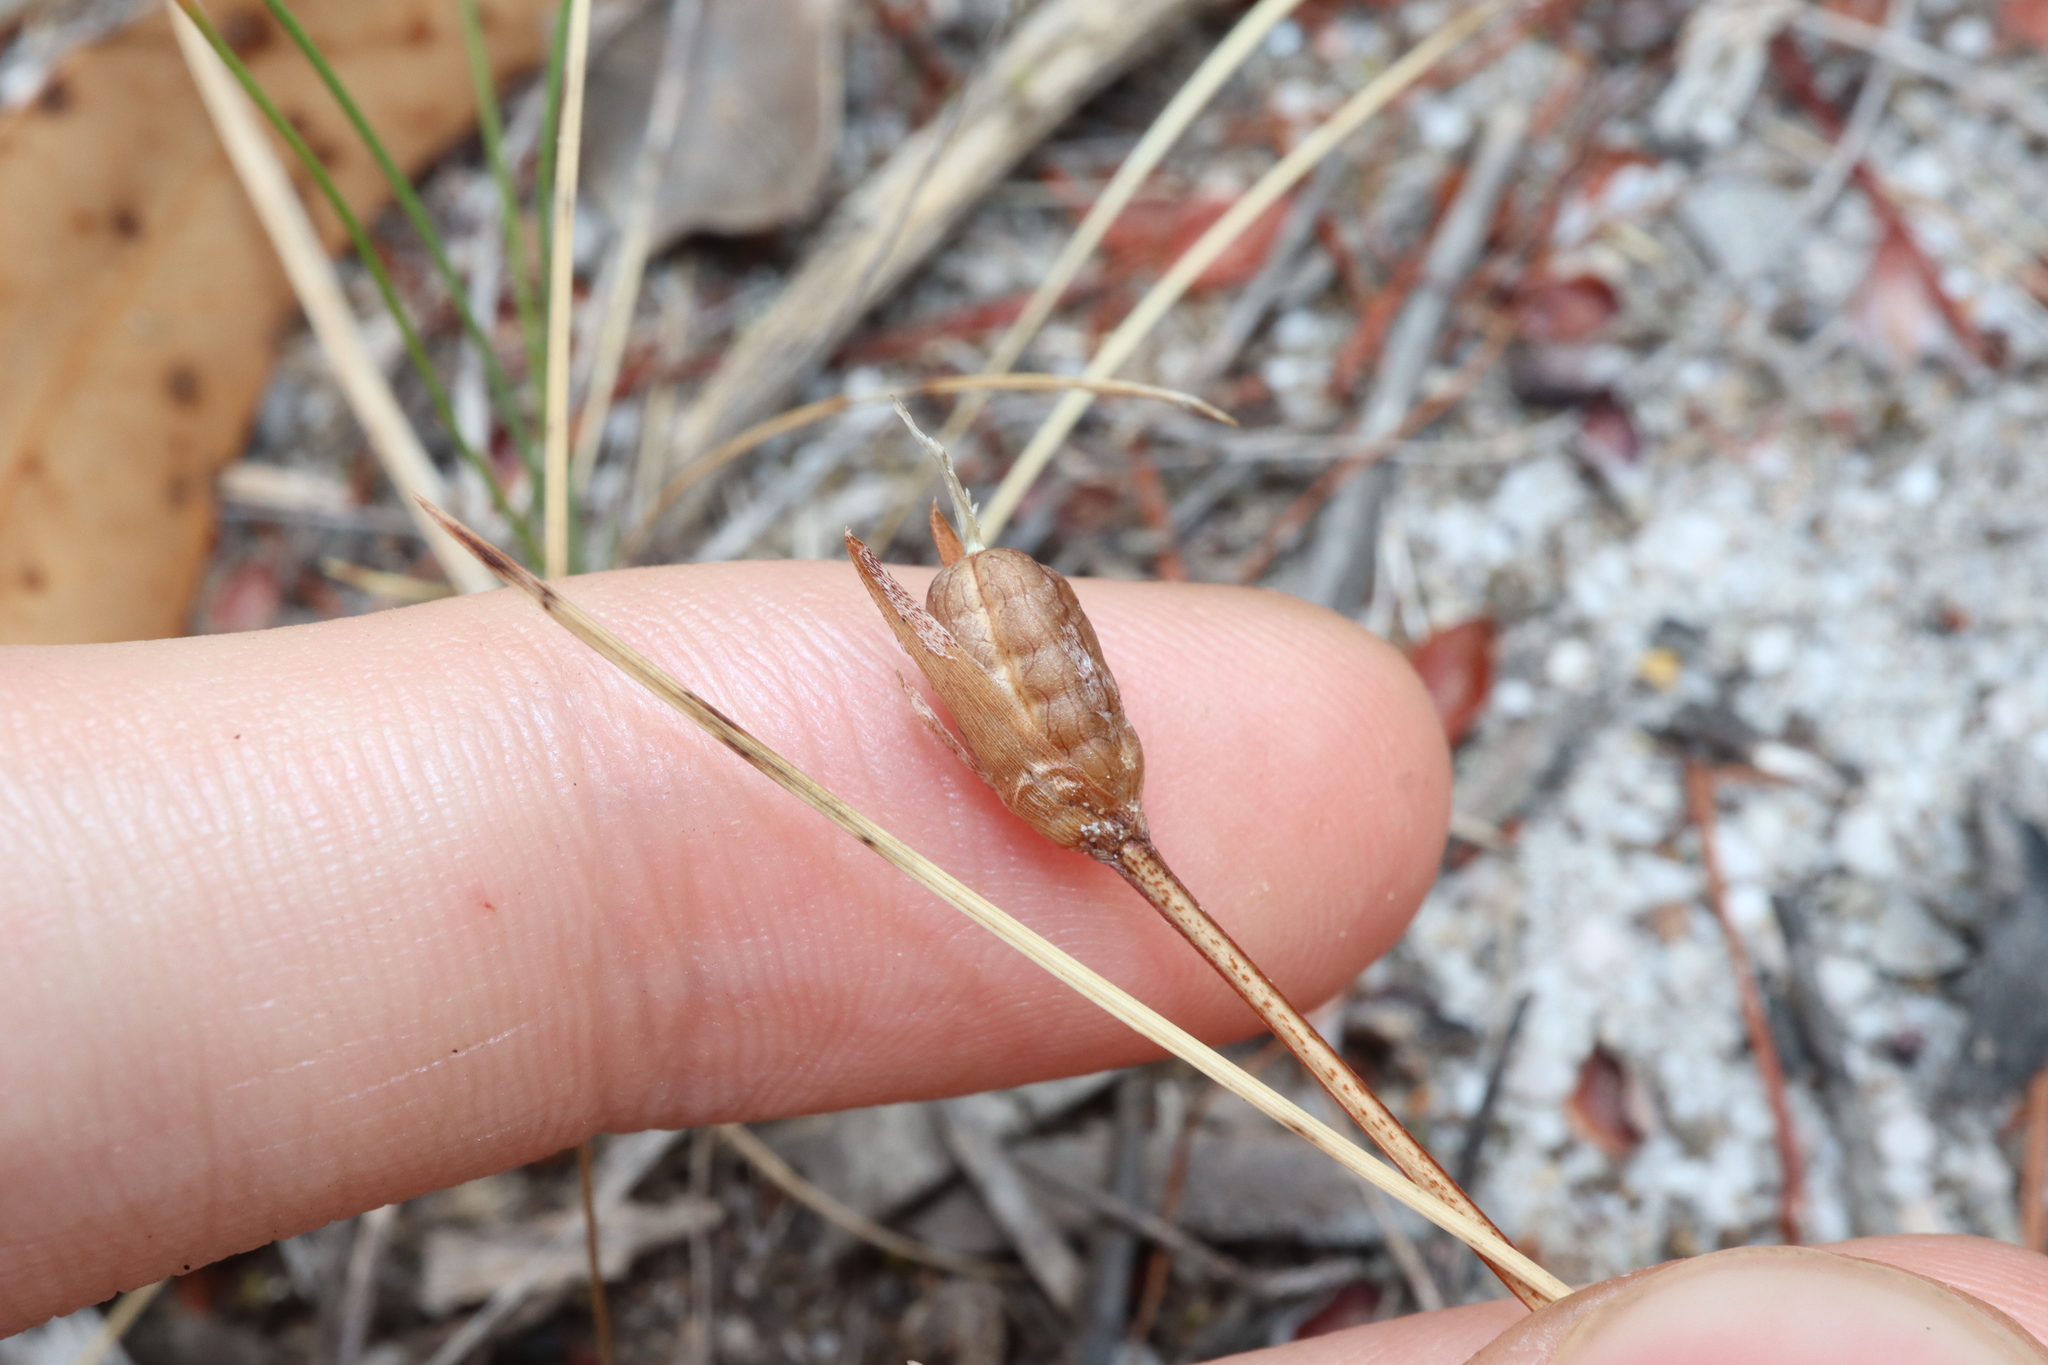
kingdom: Plantae
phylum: Tracheophyta
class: Liliopsida
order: Asparagales
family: Iridaceae
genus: Romulea
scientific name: Romulea rosea
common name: Oniongrass
